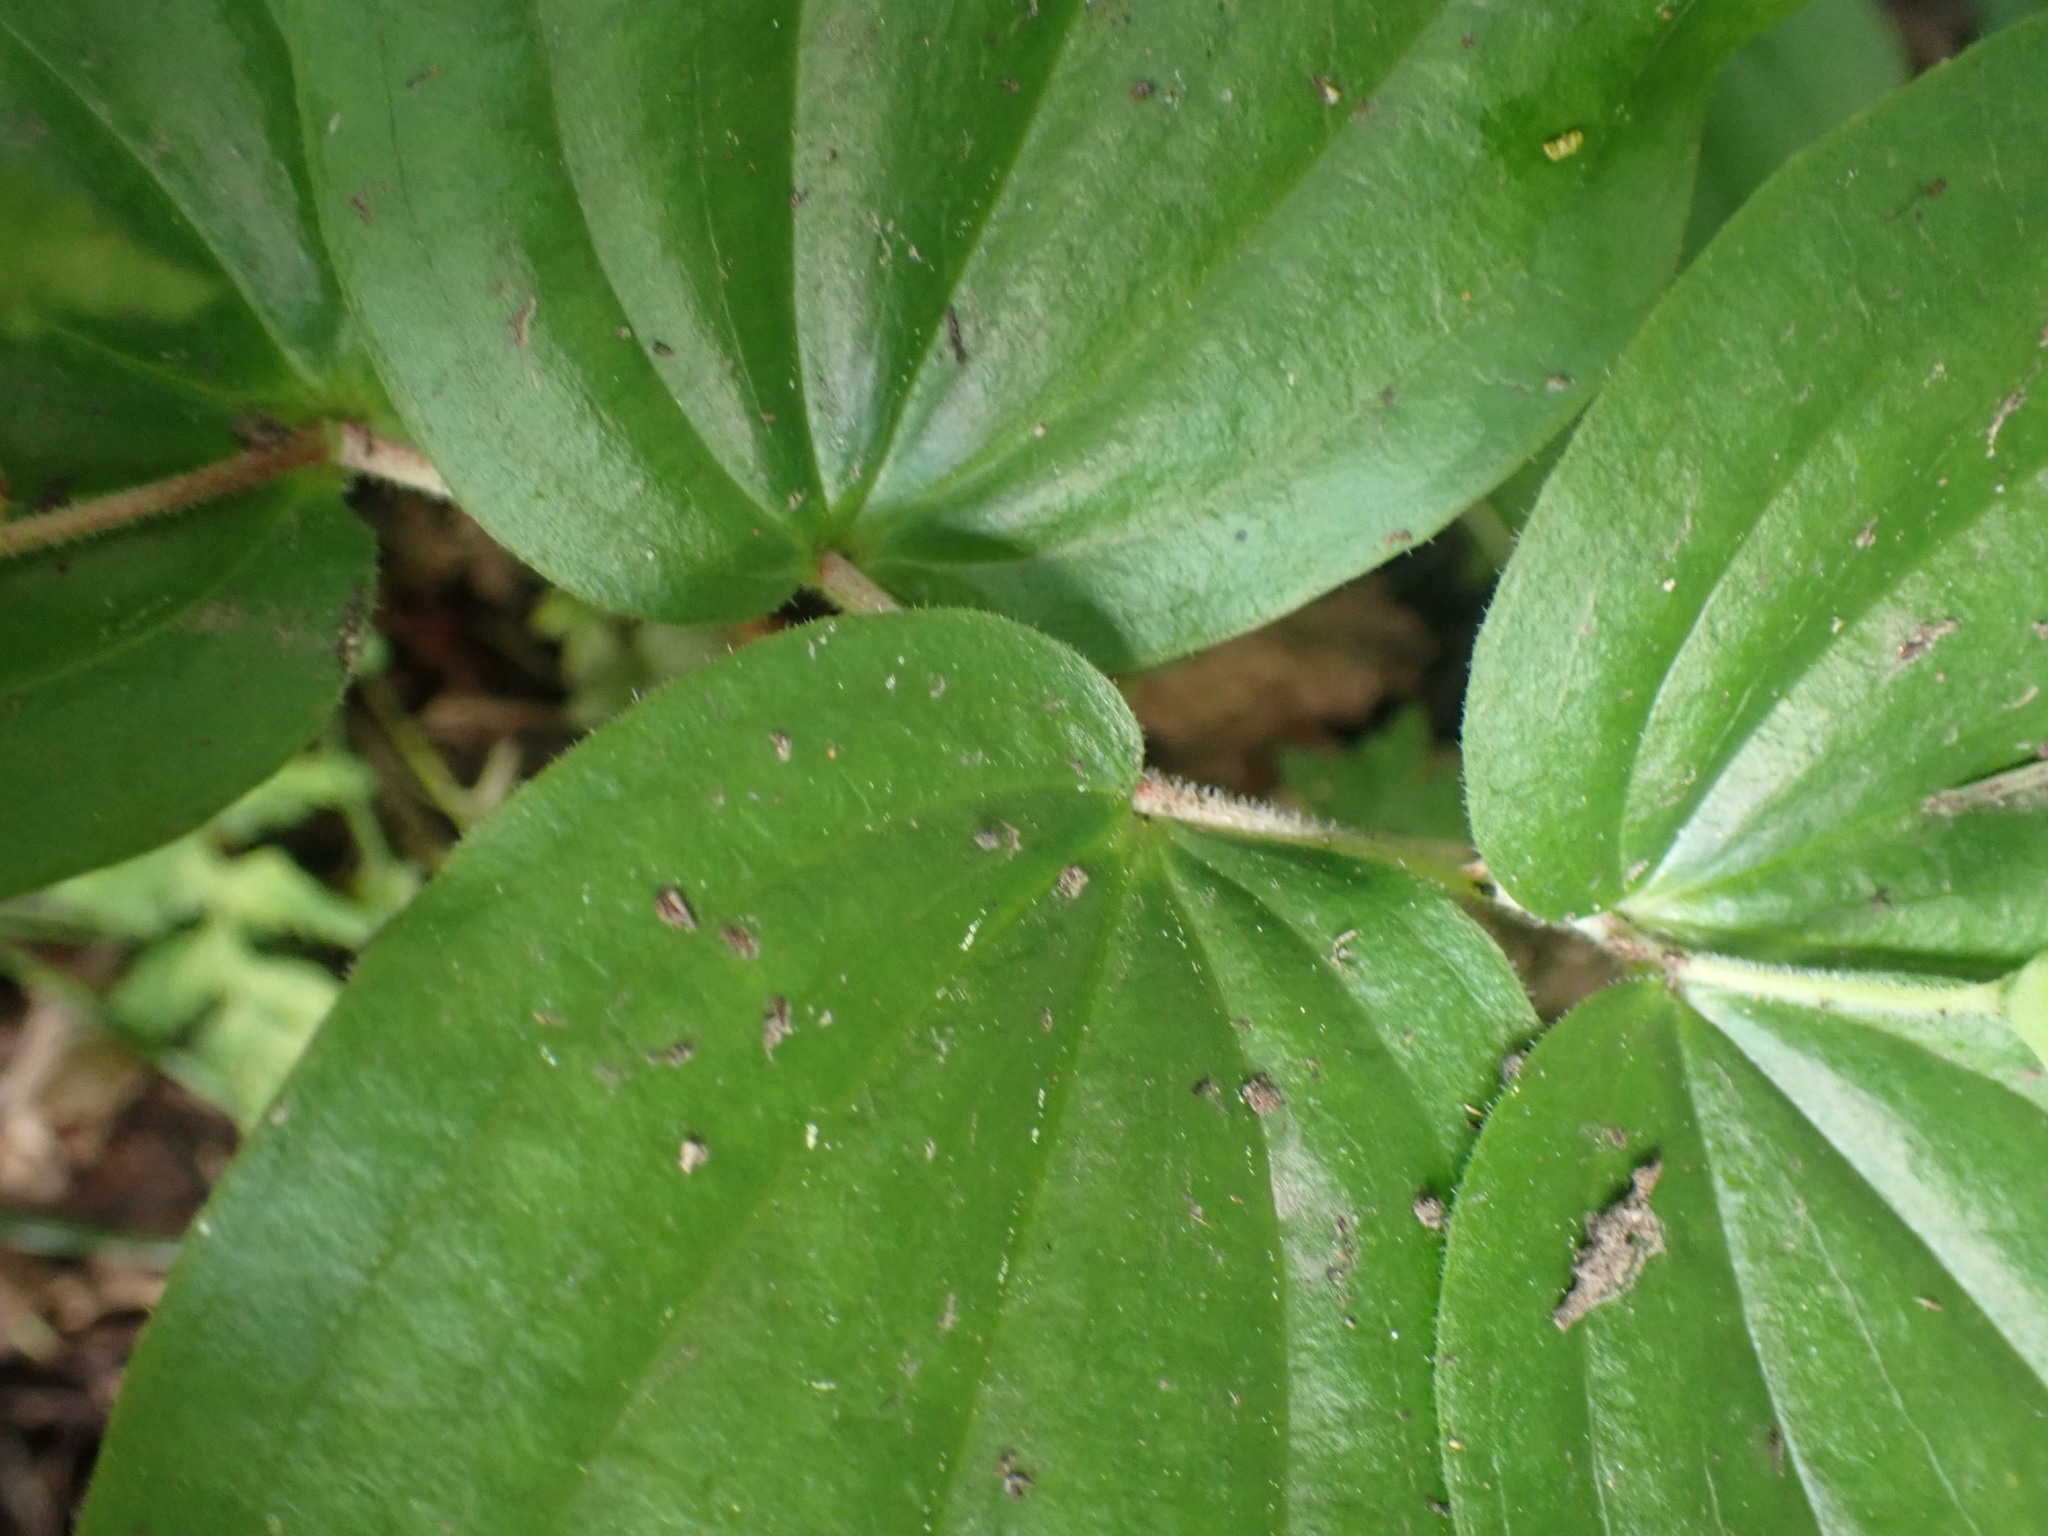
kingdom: Plantae
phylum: Tracheophyta
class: Liliopsida
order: Liliales
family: Liliaceae
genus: Prosartes
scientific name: Prosartes trachycarpa
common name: Rough-fruit fairy-bells
